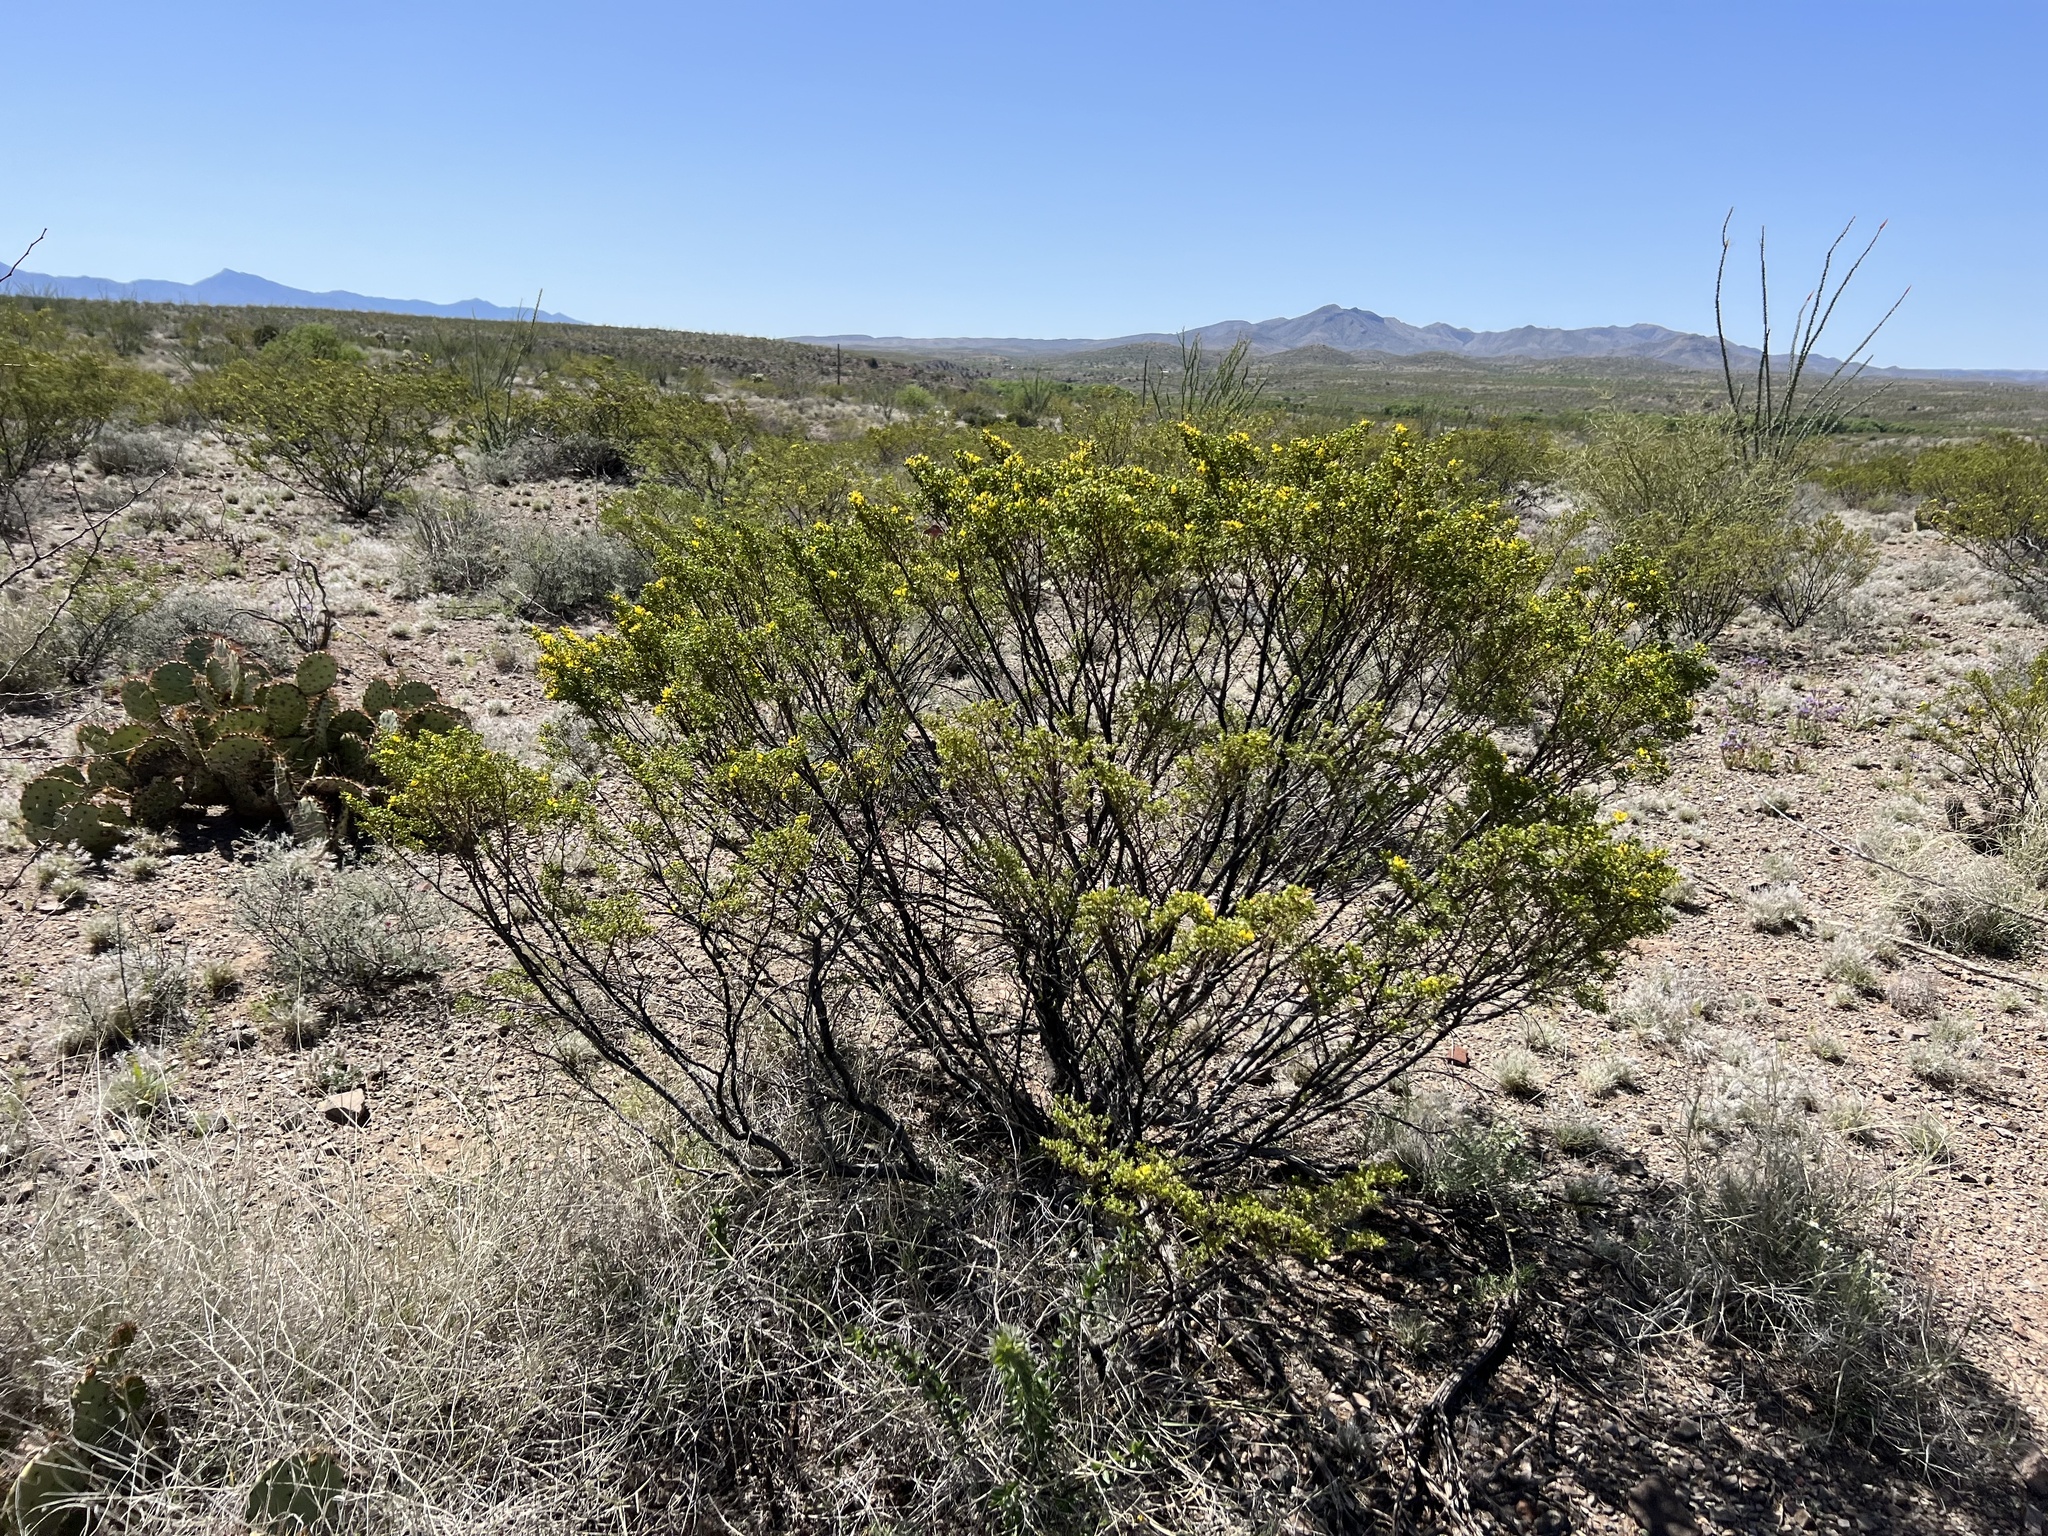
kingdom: Plantae
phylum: Tracheophyta
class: Magnoliopsida
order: Zygophyllales
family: Zygophyllaceae
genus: Larrea
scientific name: Larrea tridentata
